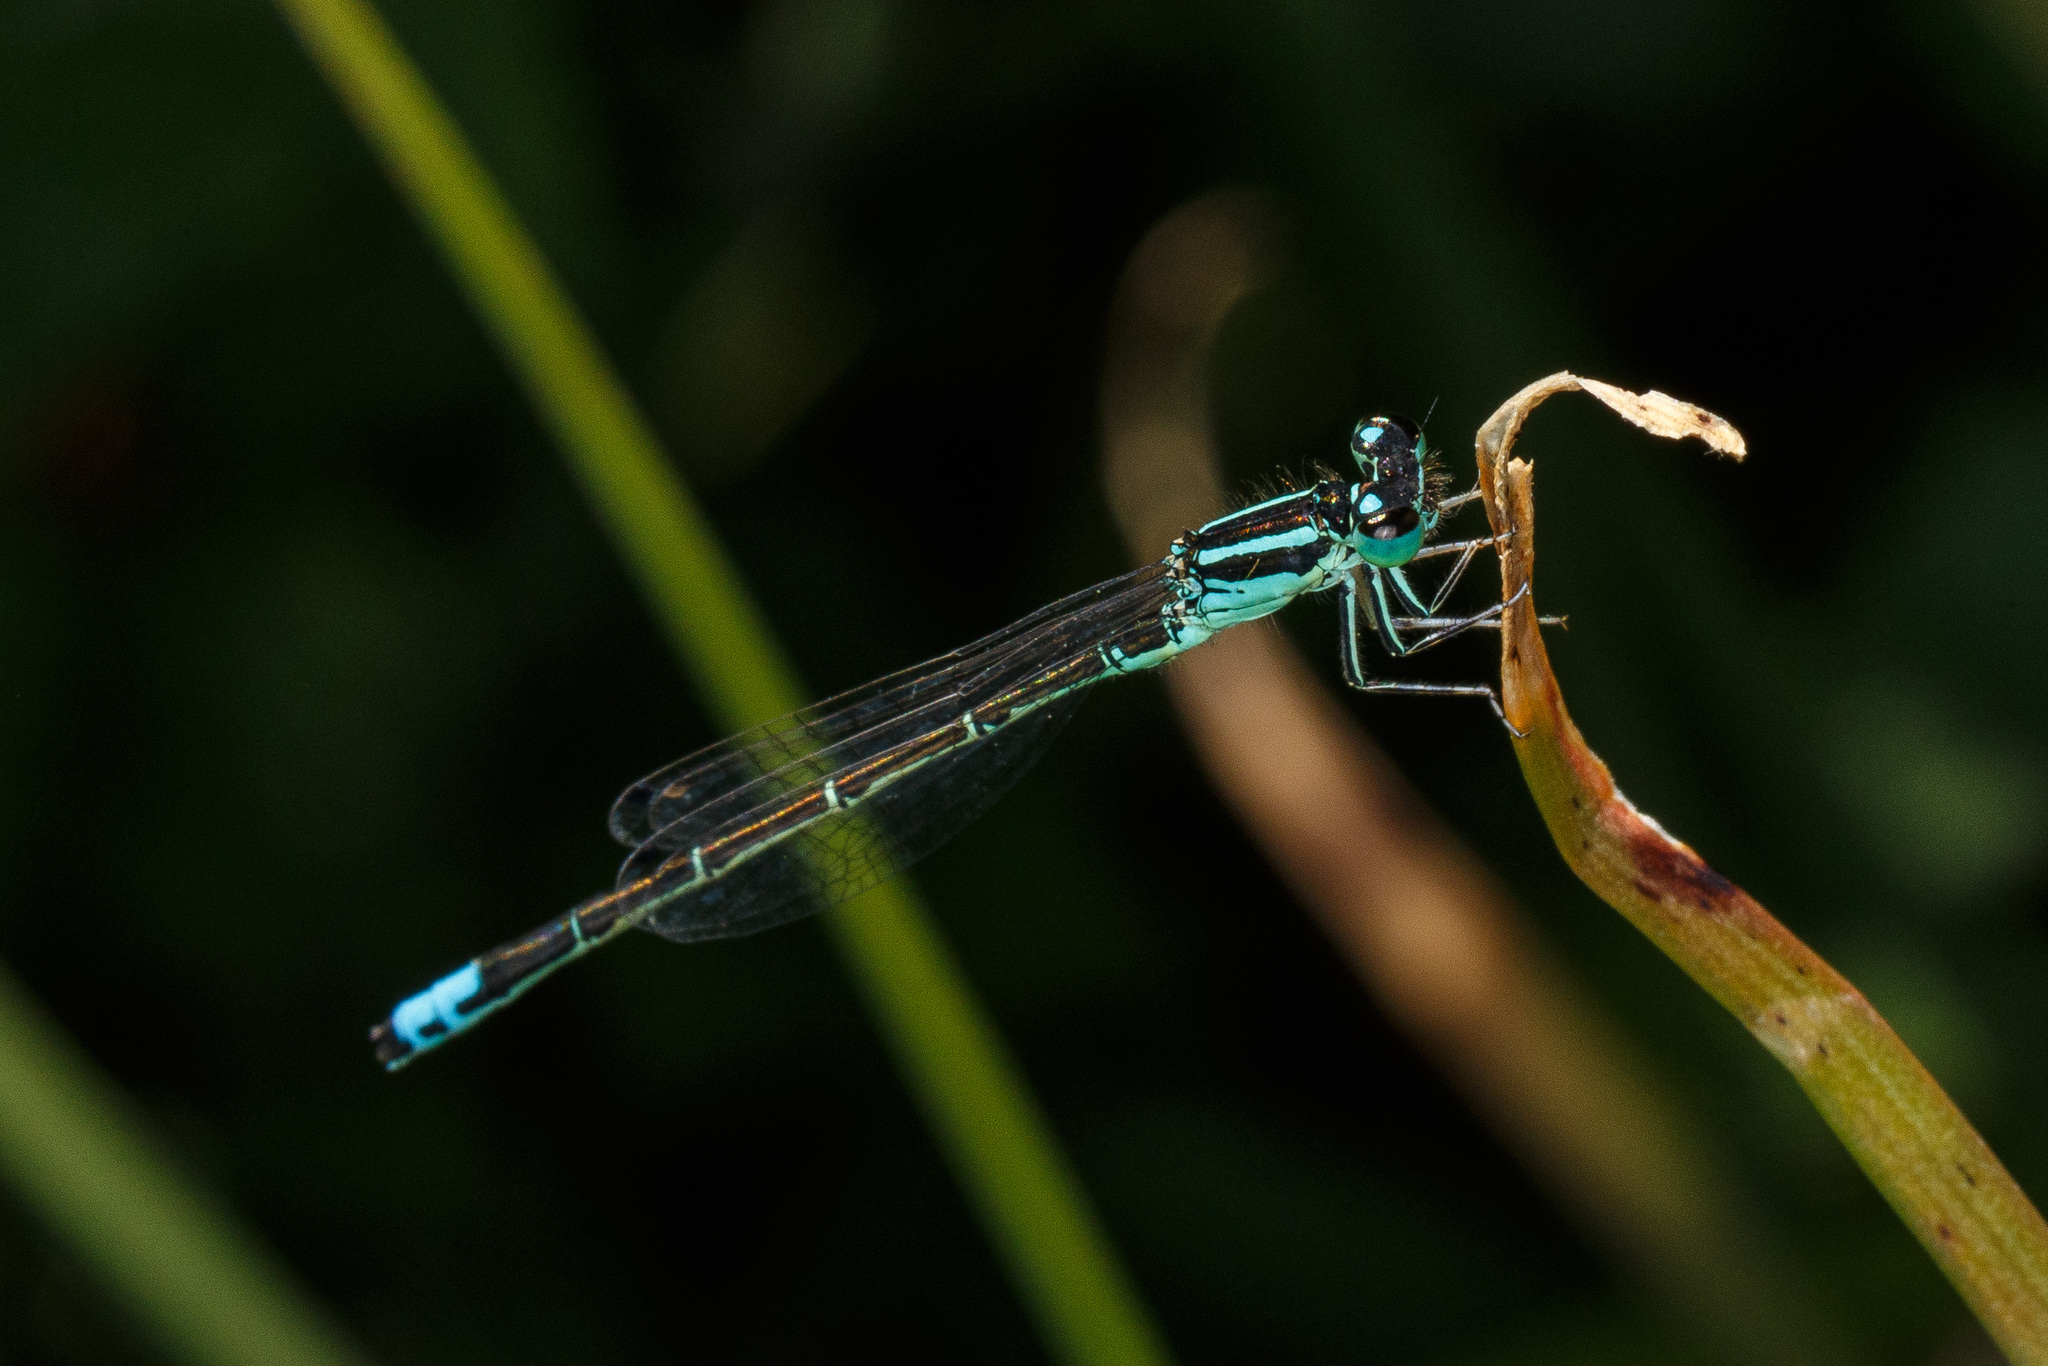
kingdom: Animalia
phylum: Arthropoda
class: Insecta
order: Odonata
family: Coenagrionidae
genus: Ischnura
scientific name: Ischnura perparva
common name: Western forktail
